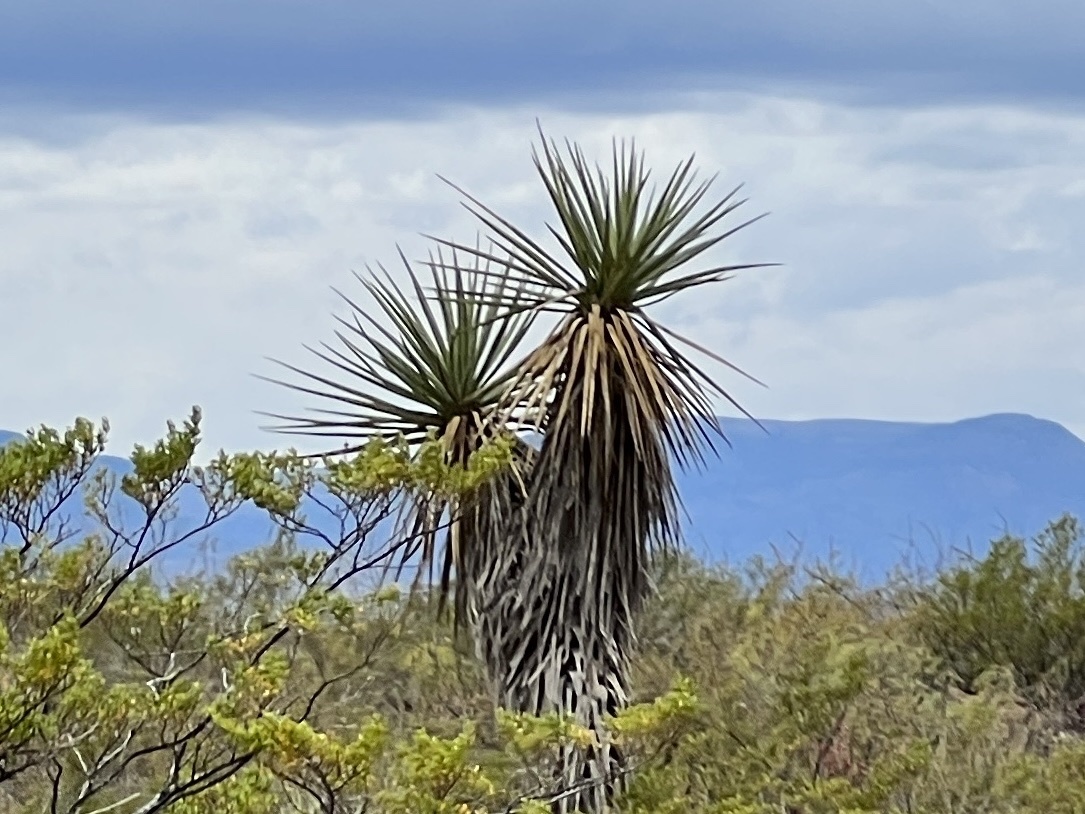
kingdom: Plantae
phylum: Tracheophyta
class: Liliopsida
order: Asparagales
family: Asparagaceae
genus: Yucca
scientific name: Yucca treculiana
